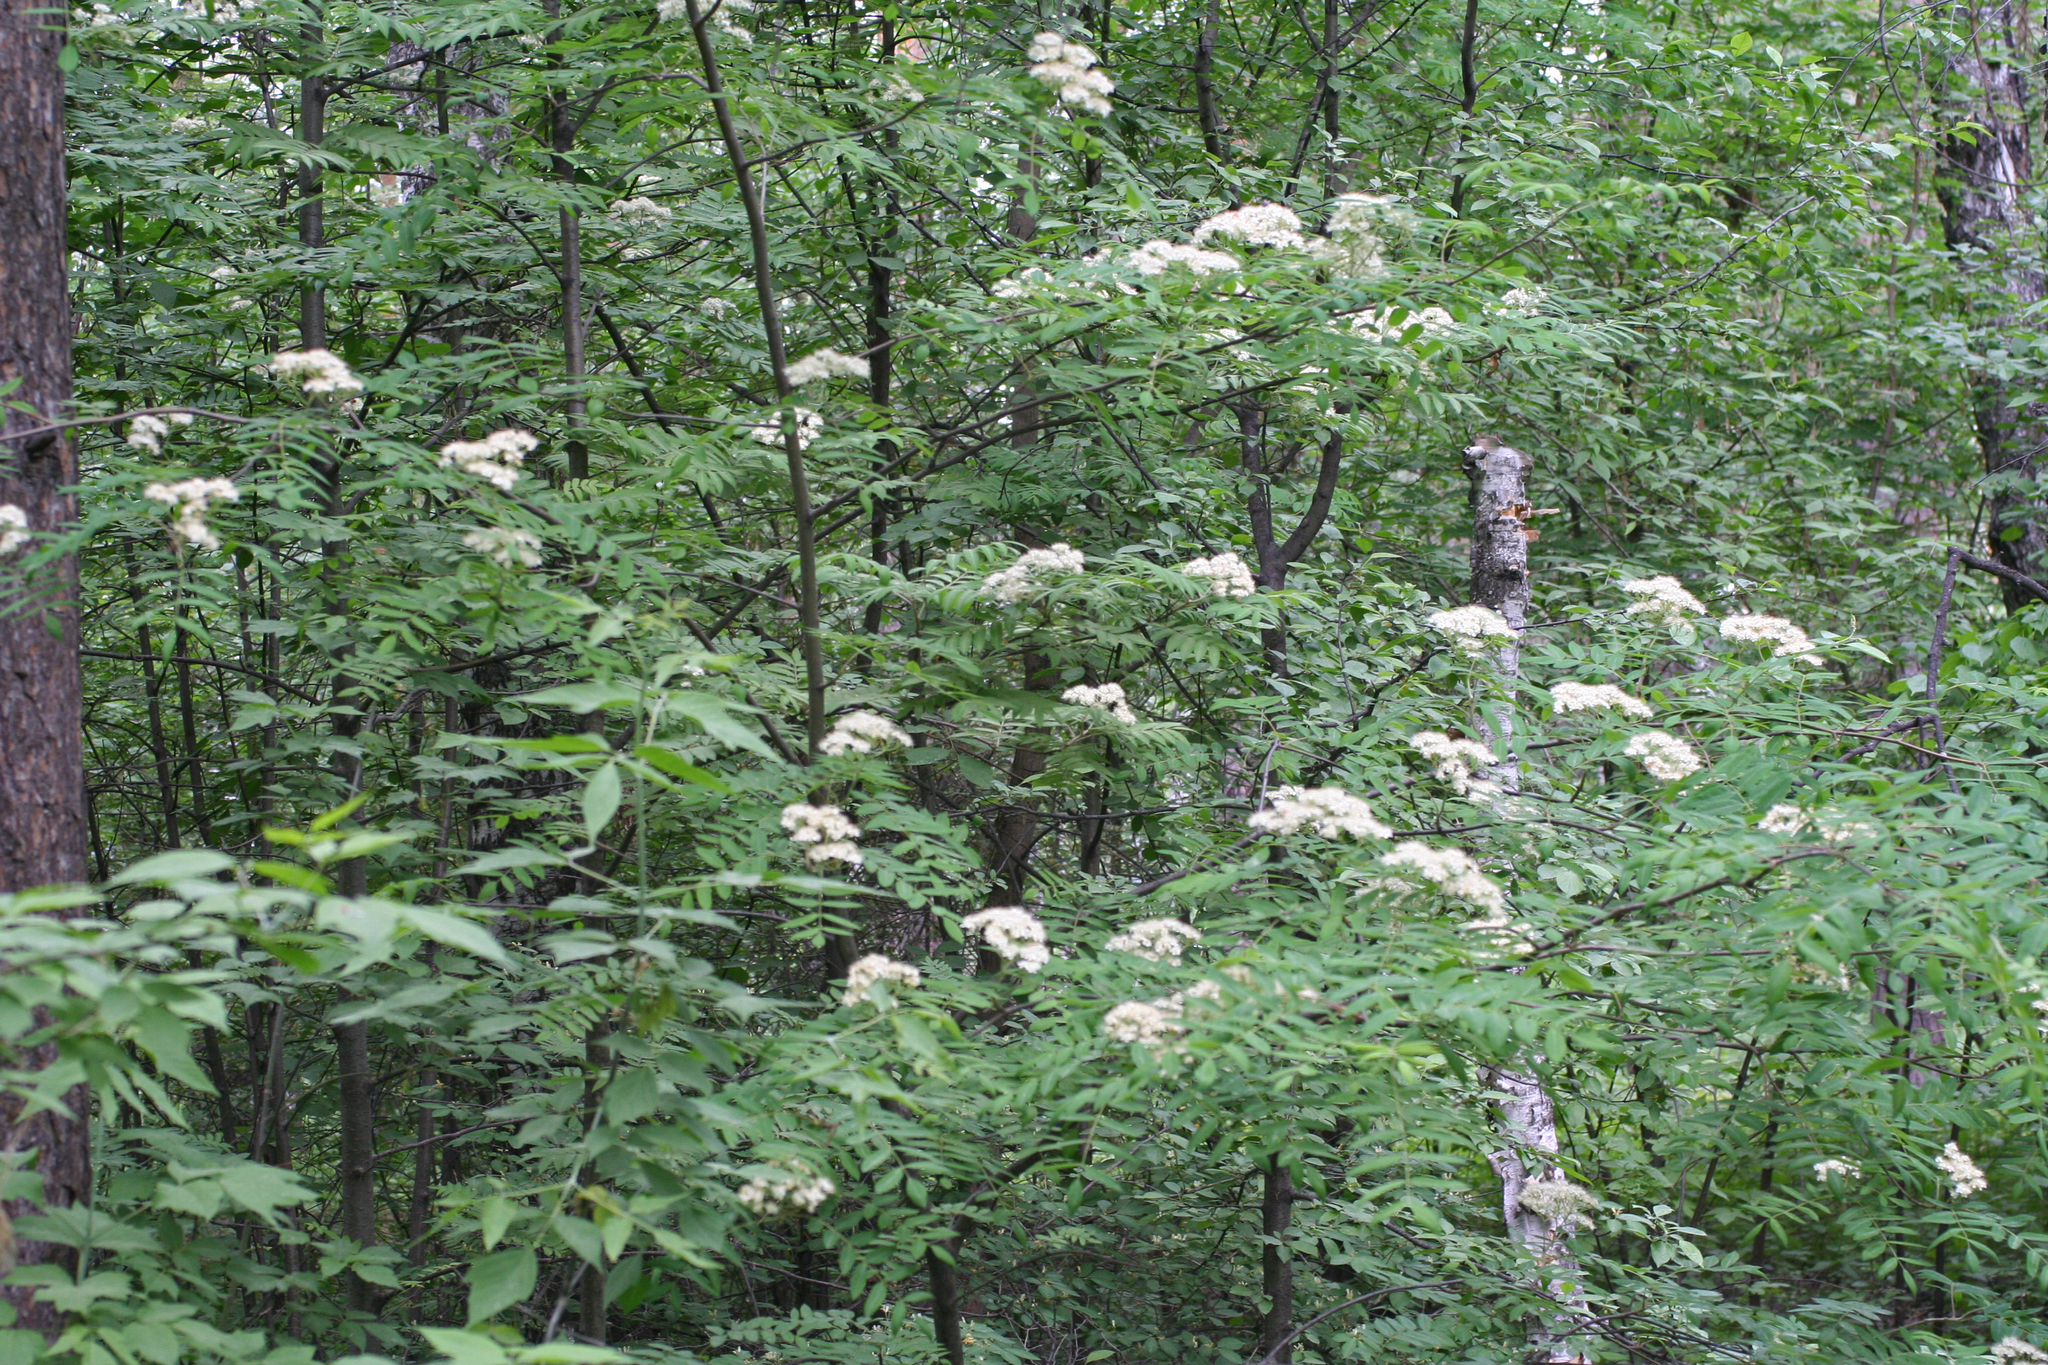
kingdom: Plantae
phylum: Tracheophyta
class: Magnoliopsida
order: Rosales
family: Rosaceae
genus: Sorbus
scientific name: Sorbus aucuparia
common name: Rowan
